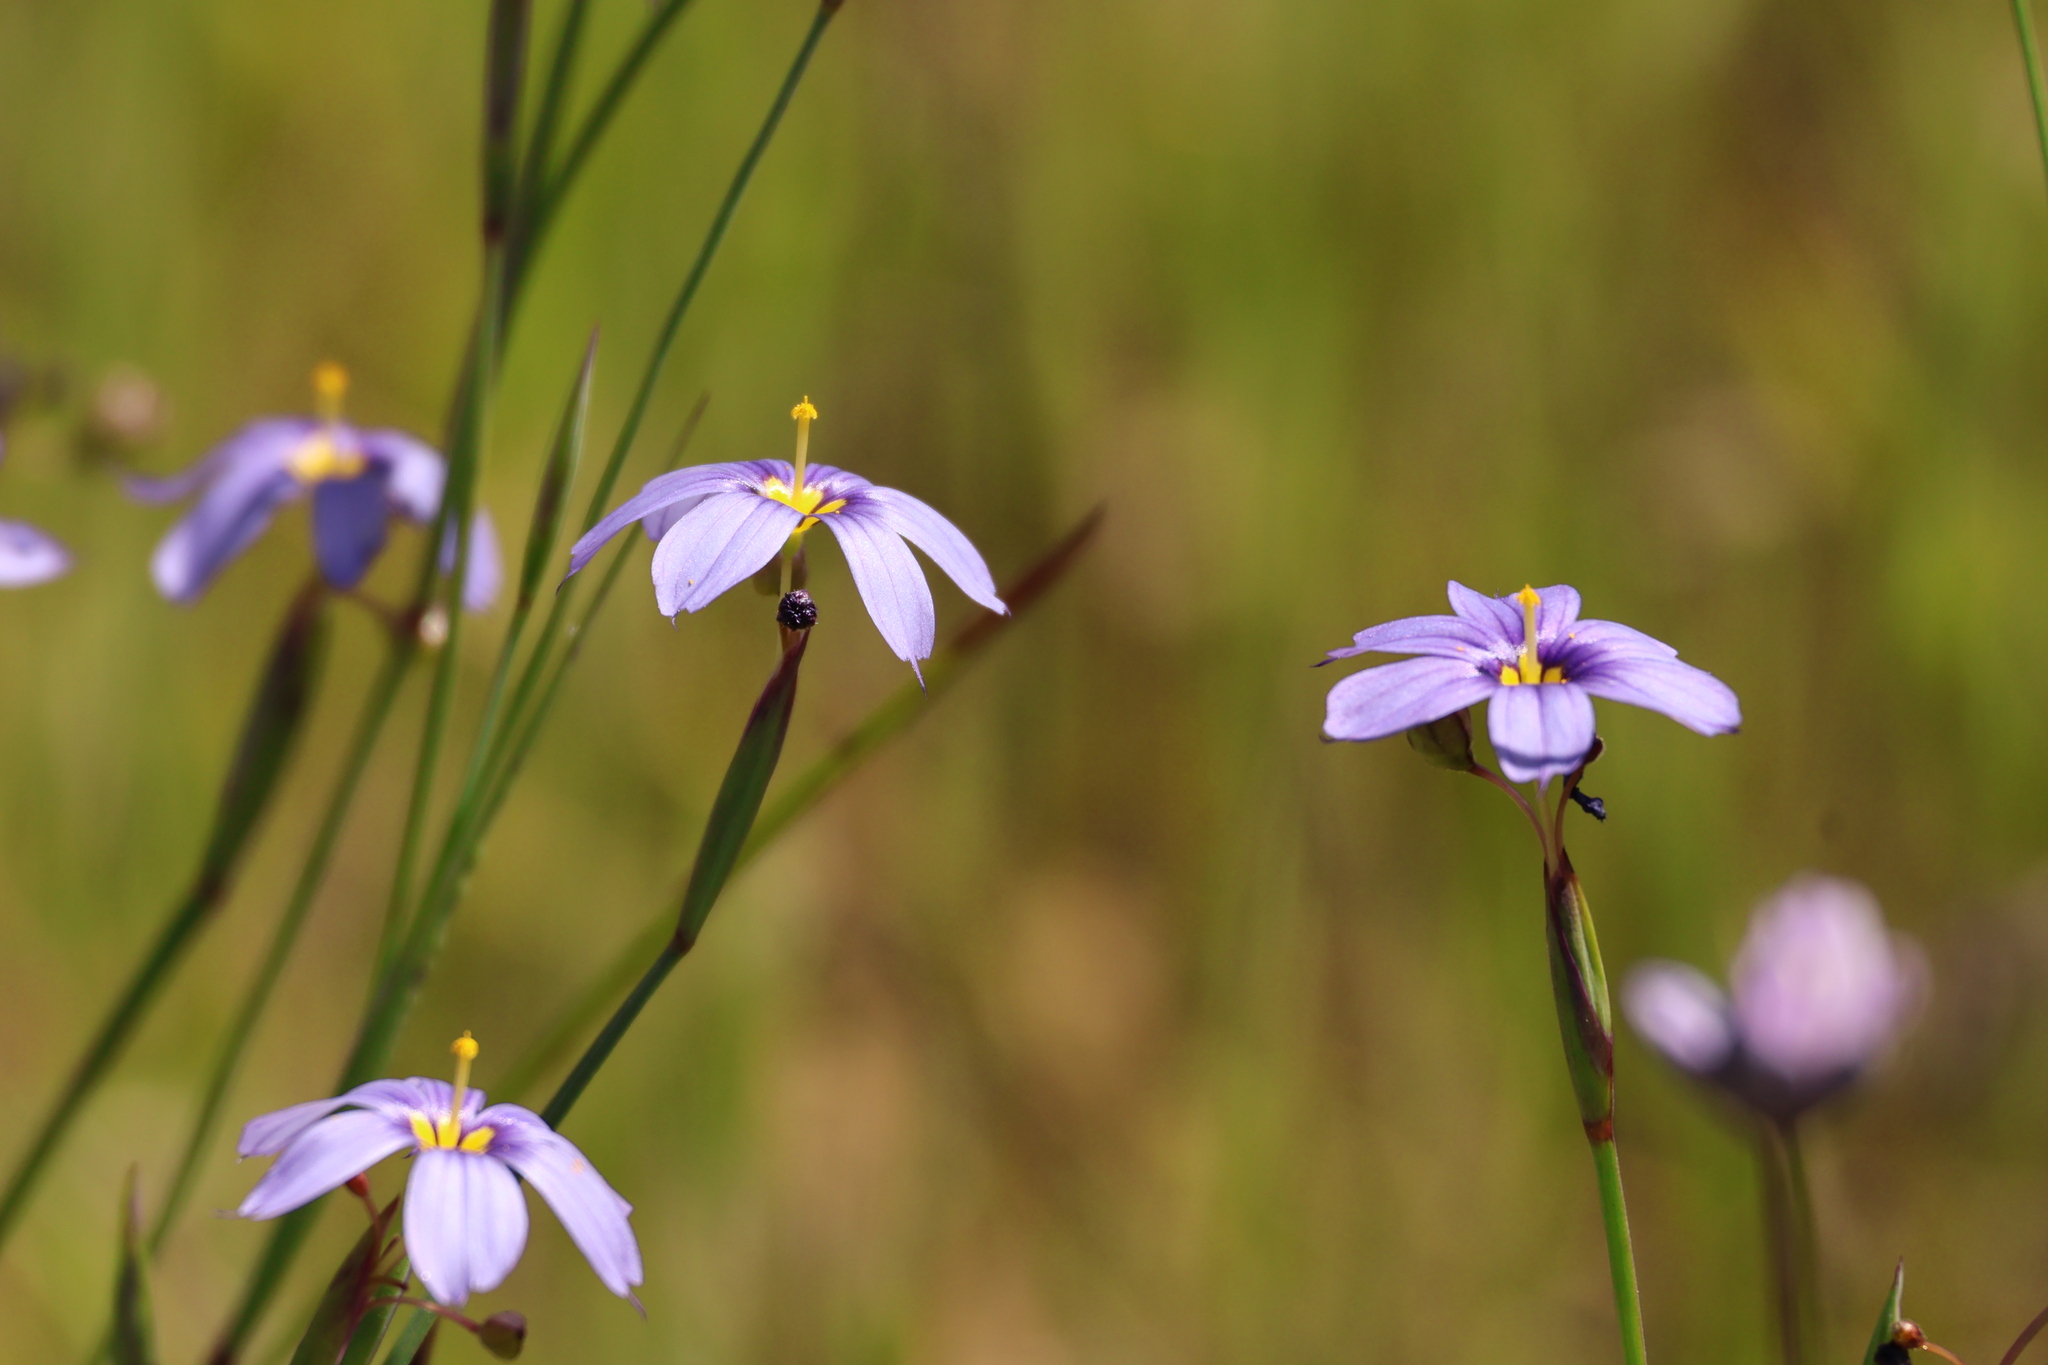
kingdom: Plantae
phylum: Tracheophyta
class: Liliopsida
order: Asparagales
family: Iridaceae
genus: Sisyrinchium
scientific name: Sisyrinchium bellum
